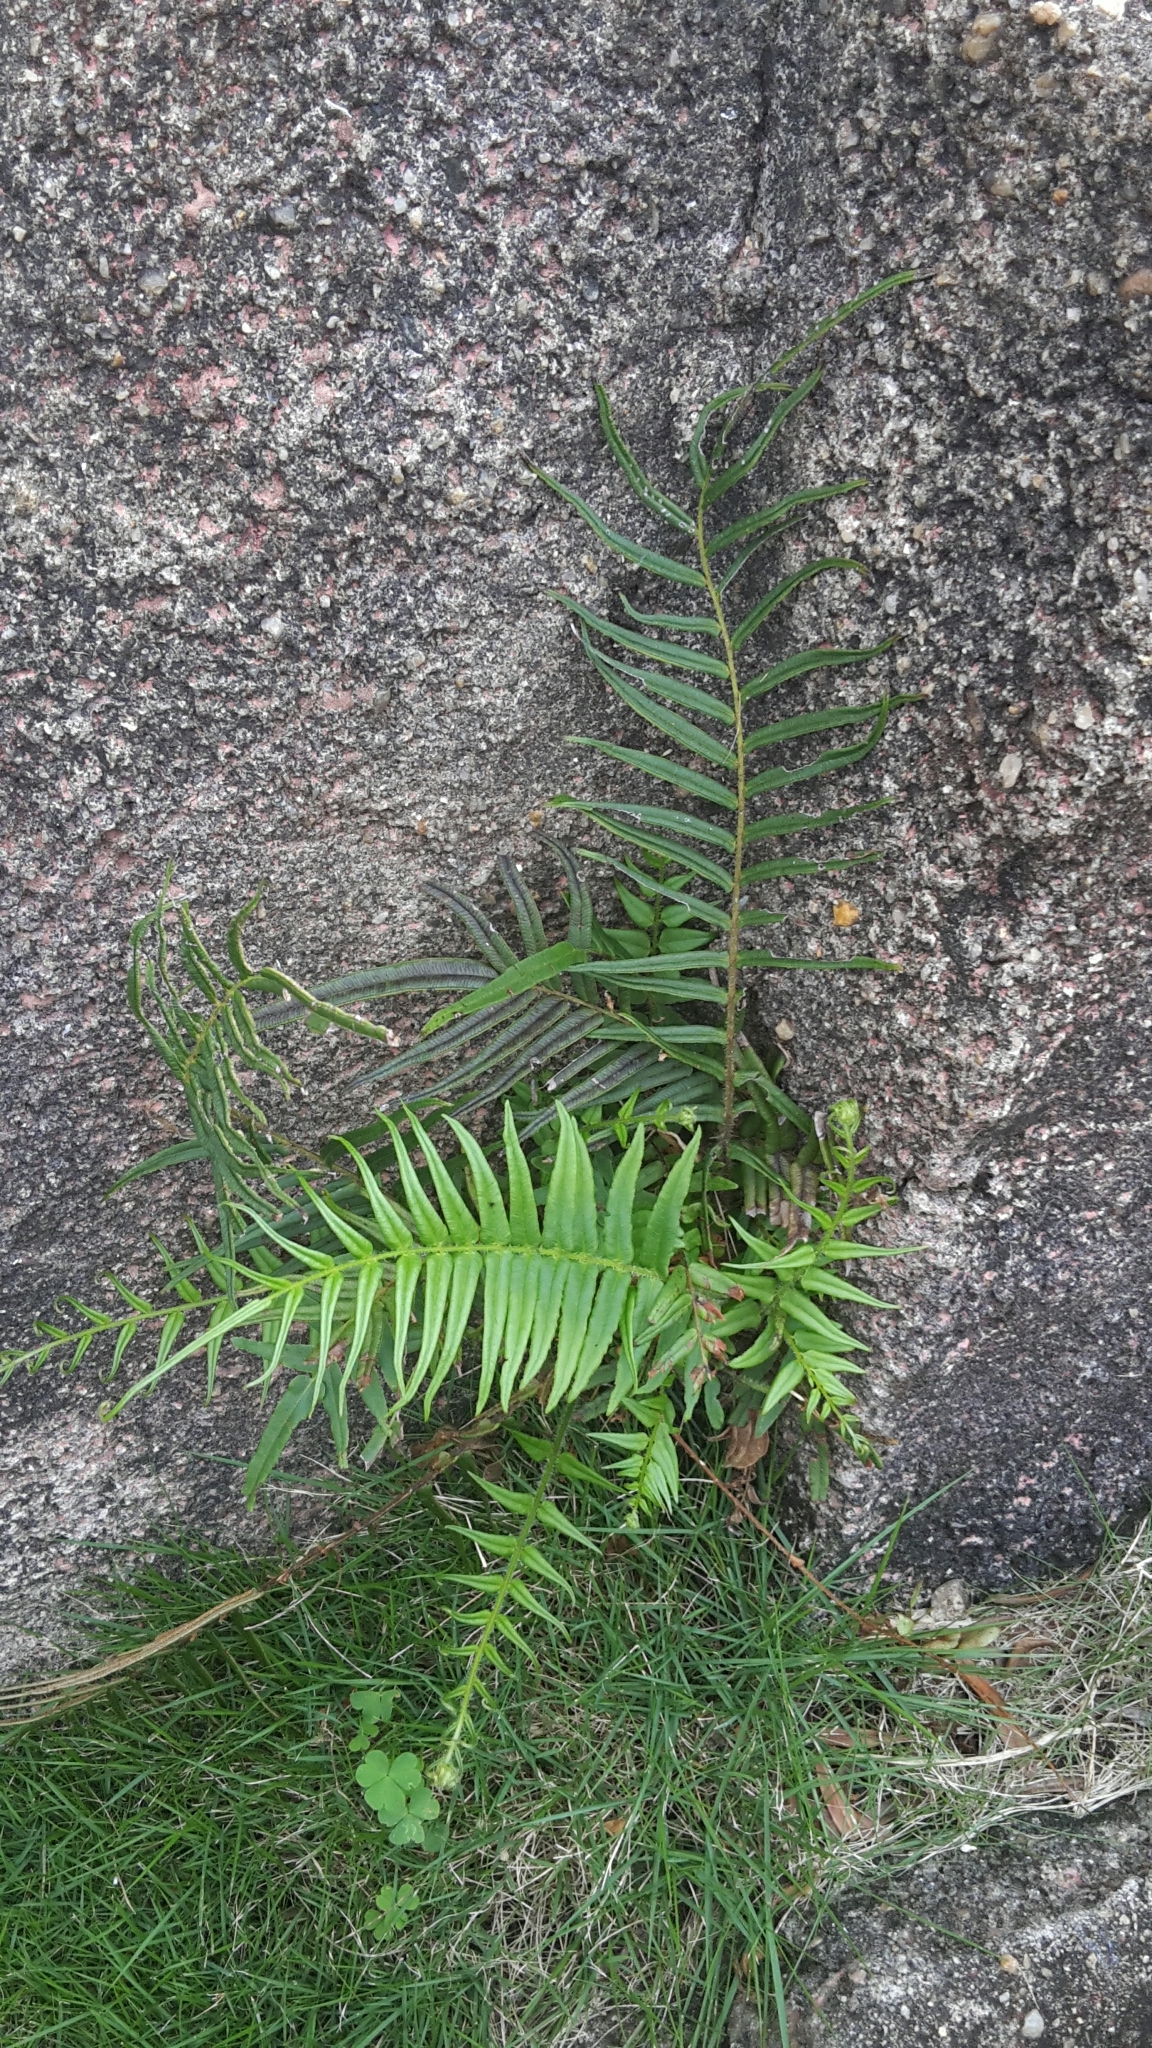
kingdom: Plantae
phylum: Tracheophyta
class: Polypodiopsida
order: Polypodiales
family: Pteridaceae
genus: Pteris
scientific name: Pteris vittata
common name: Ladder brake
